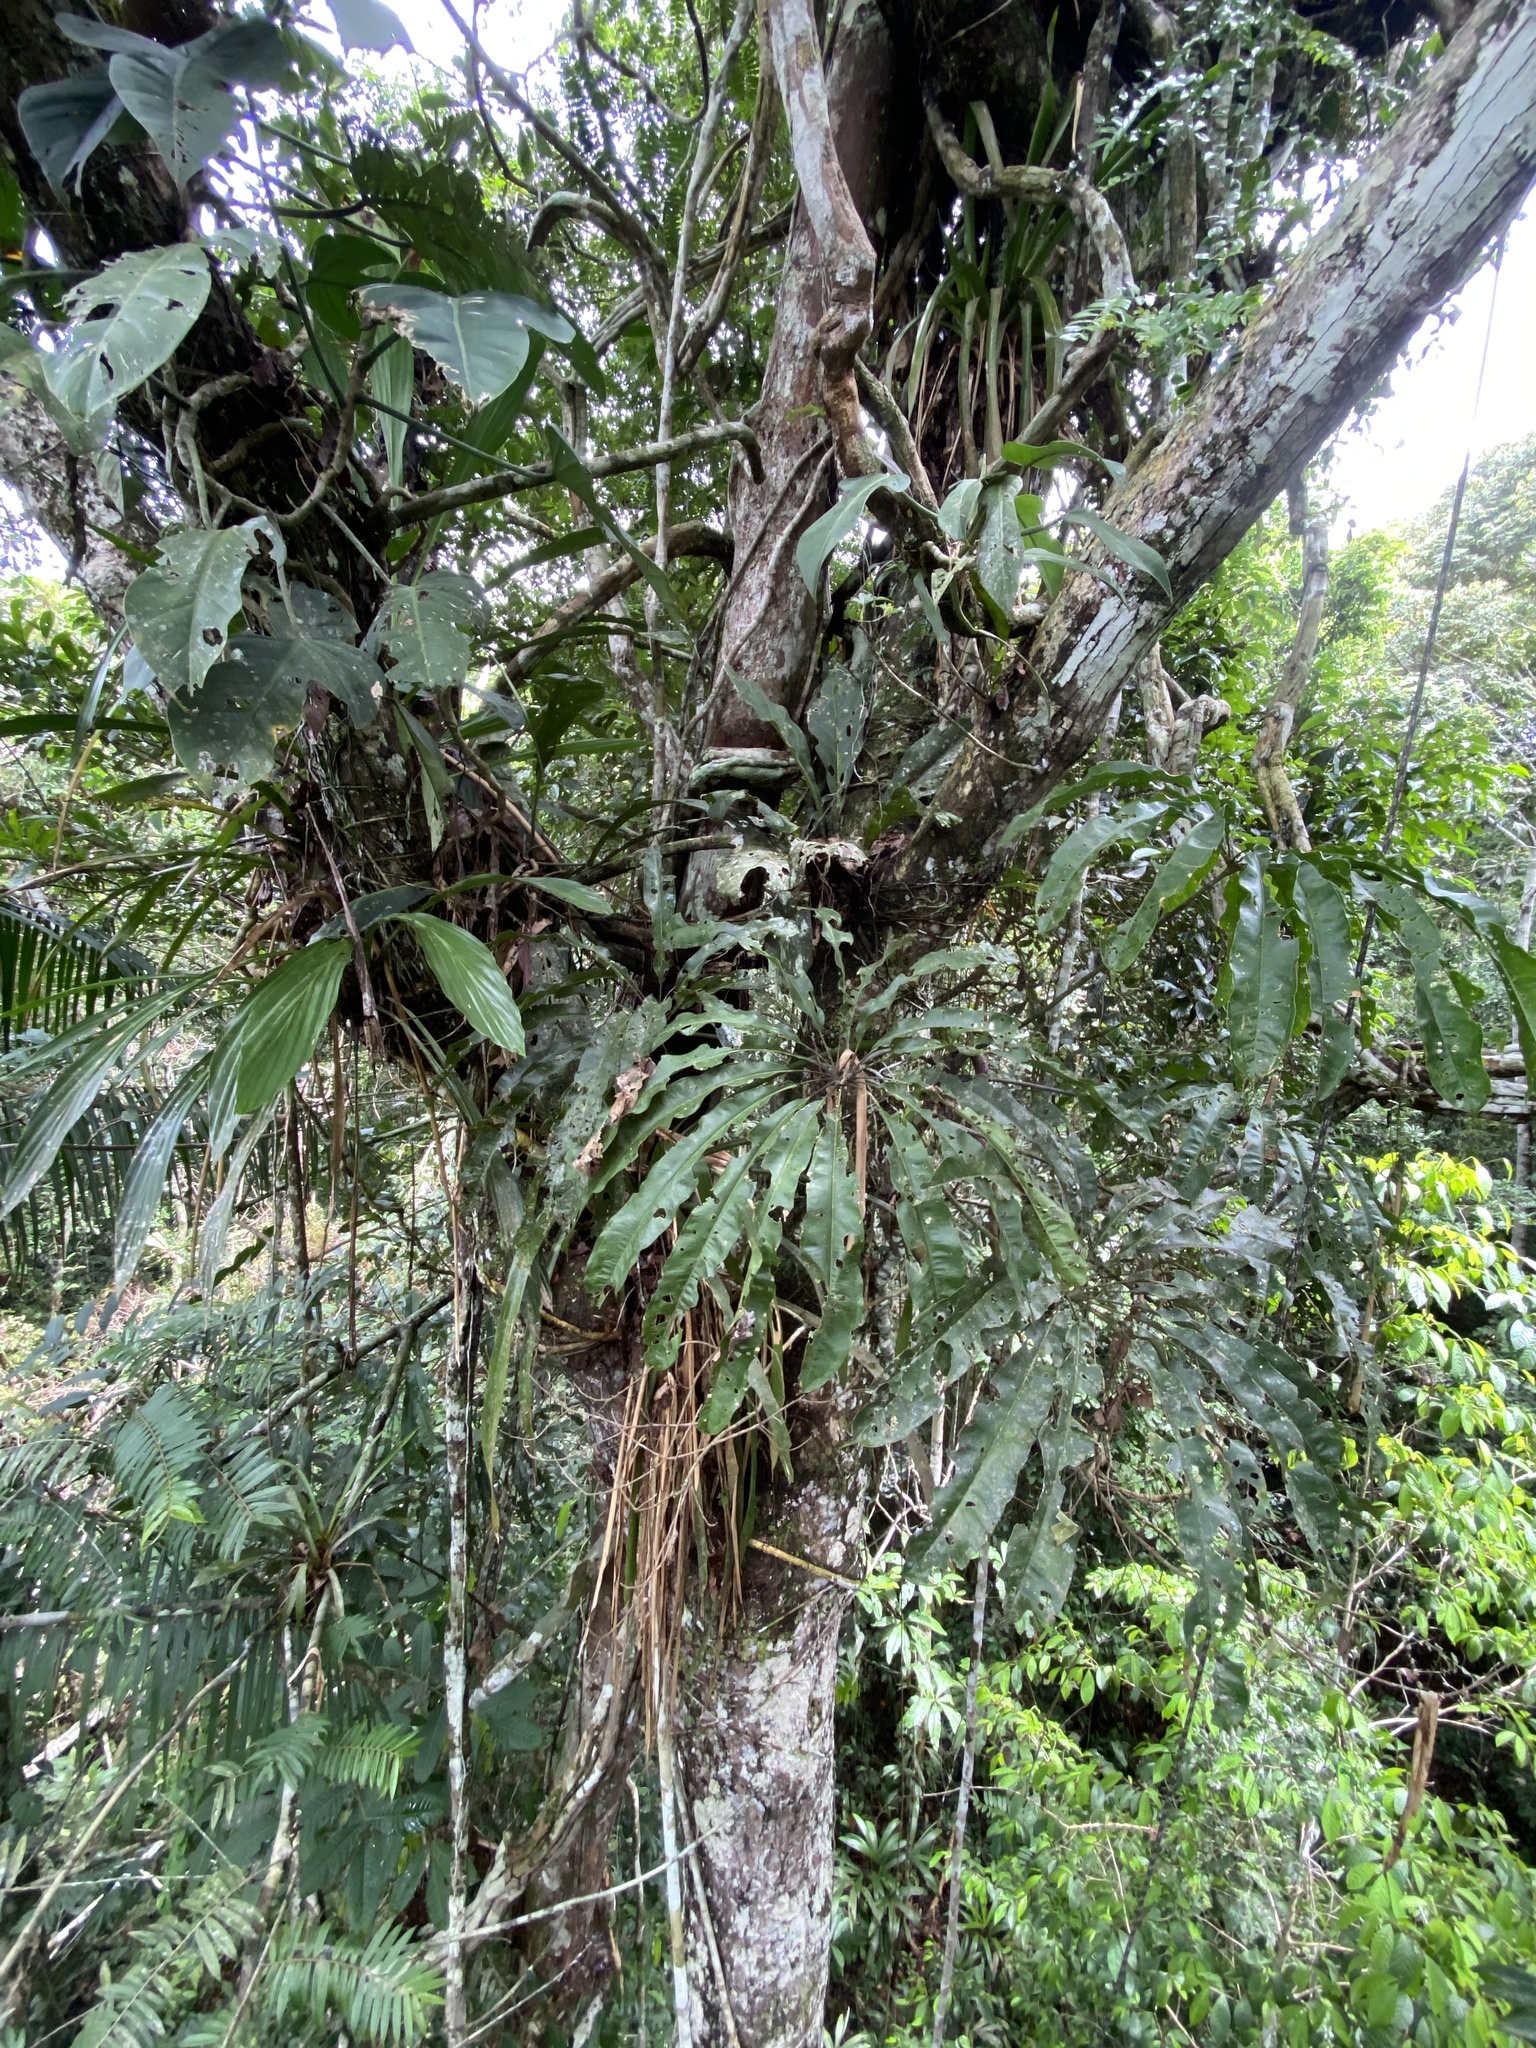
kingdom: Plantae
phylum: Tracheophyta
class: Liliopsida
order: Alismatales
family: Araceae
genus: Anthurium
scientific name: Anthurium eminens
